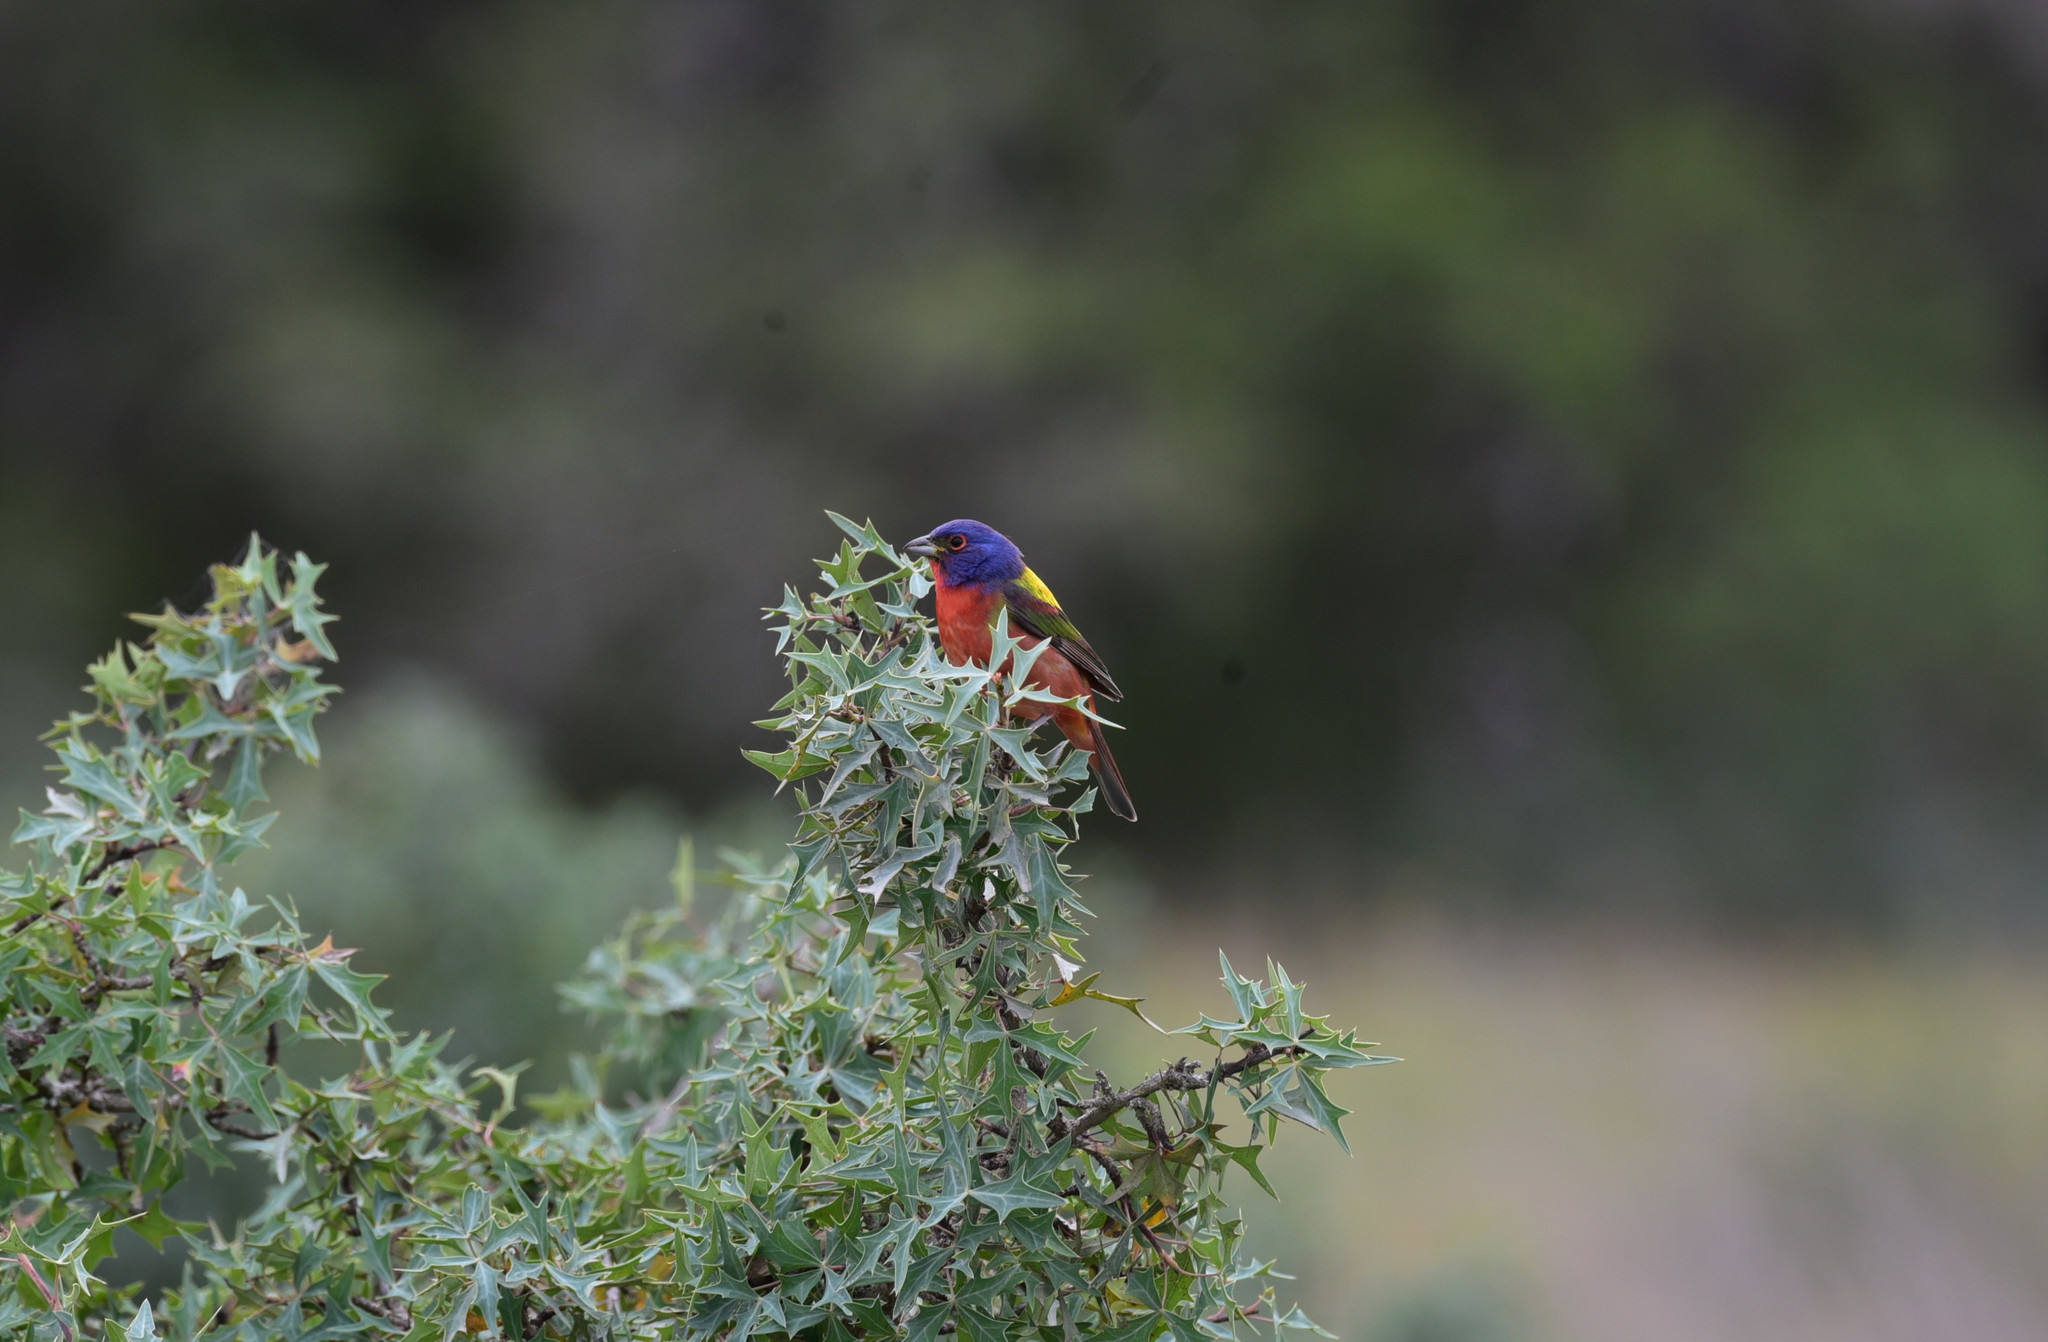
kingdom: Animalia
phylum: Chordata
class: Aves
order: Passeriformes
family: Cardinalidae
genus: Passerina
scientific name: Passerina ciris
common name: Painted bunting
